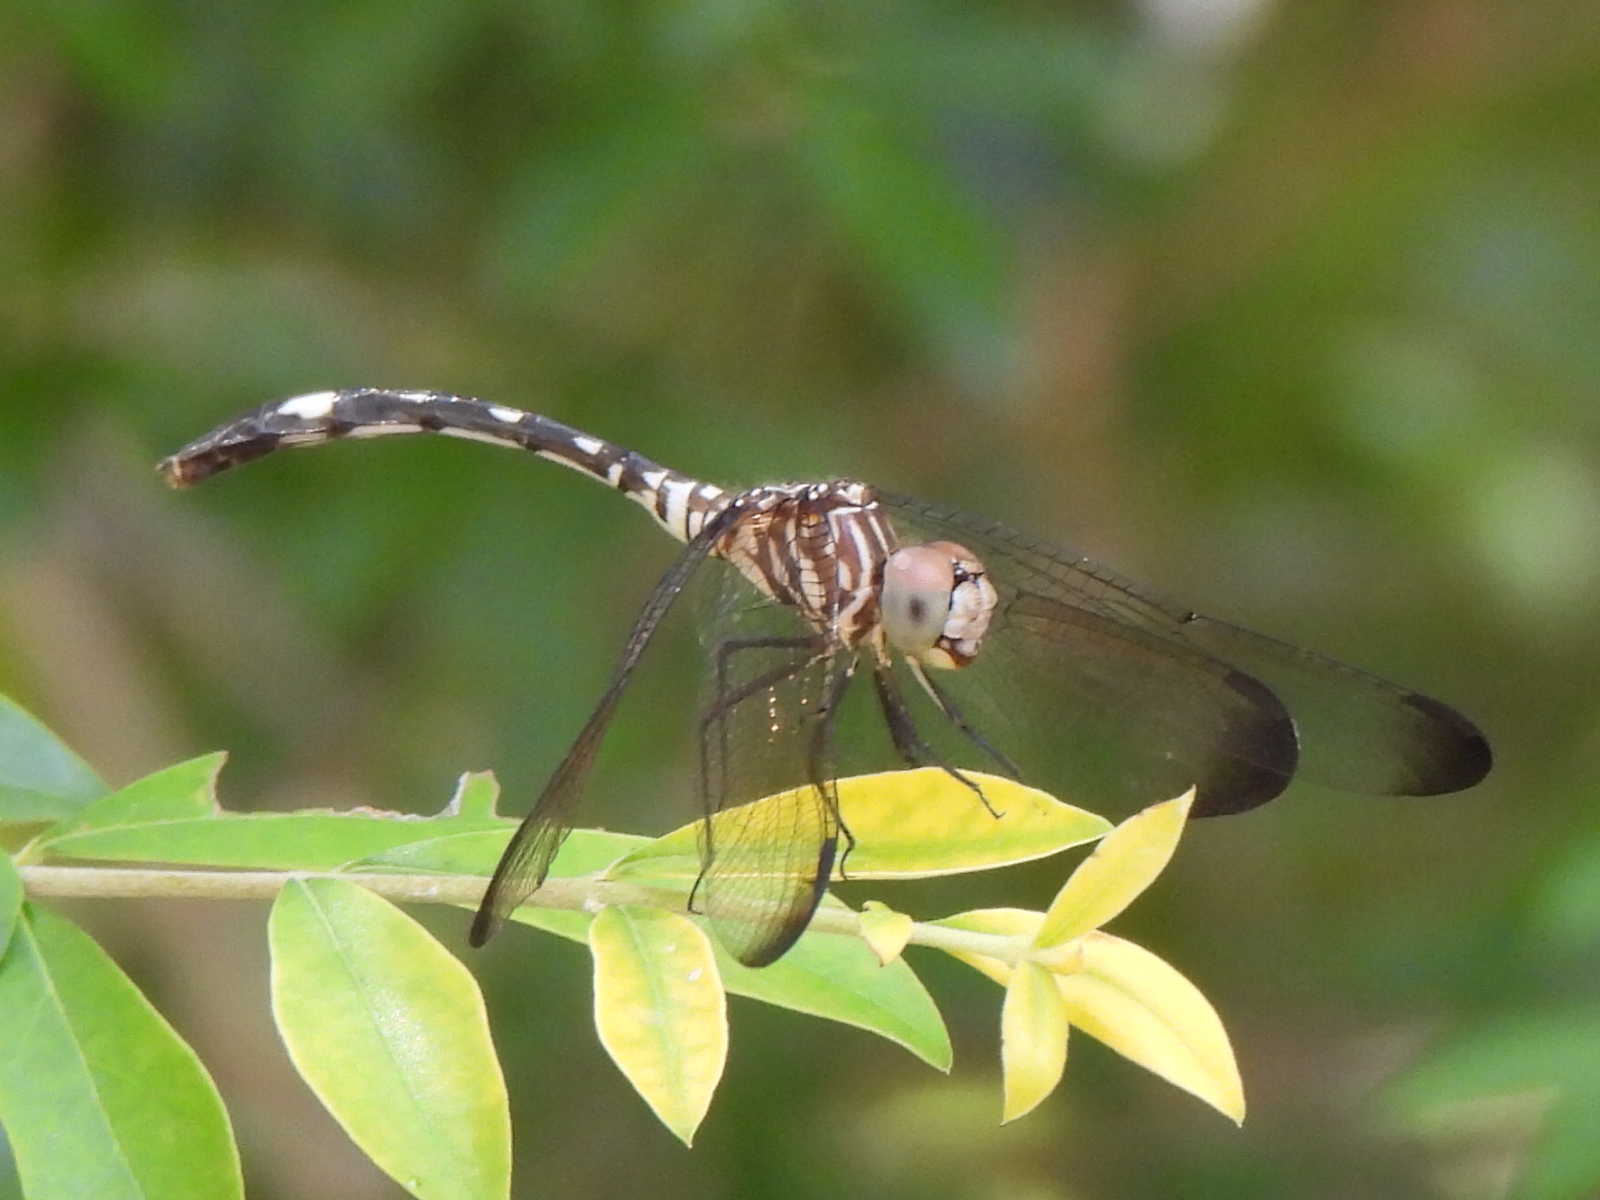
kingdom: Animalia
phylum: Arthropoda
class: Insecta
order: Odonata
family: Libellulidae
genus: Dythemis
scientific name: Dythemis velox
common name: Swift setwing
